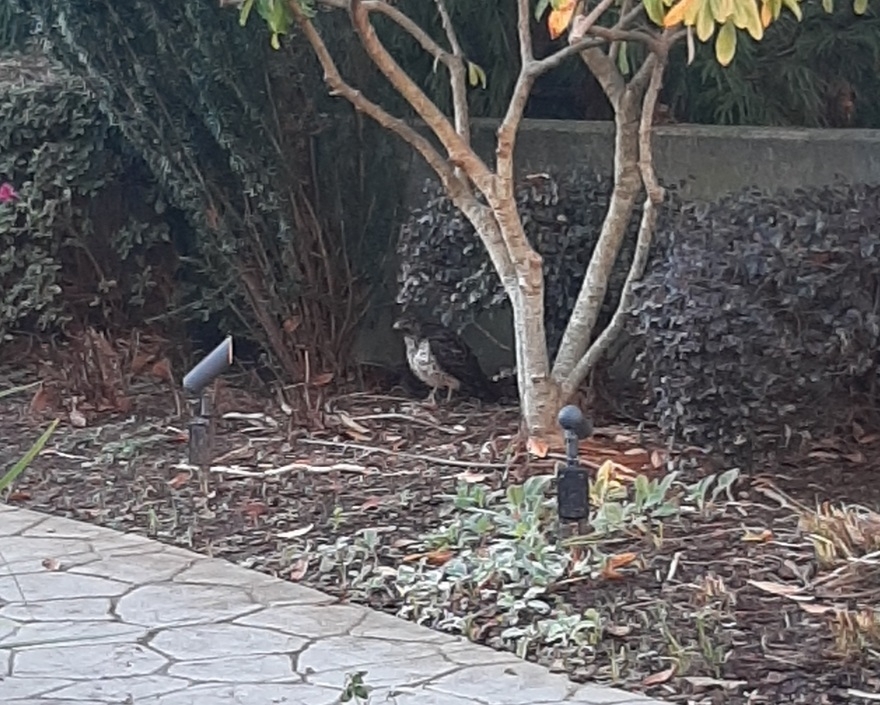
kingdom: Animalia
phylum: Chordata
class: Aves
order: Accipitriformes
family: Accipitridae
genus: Buteo
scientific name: Buteo lineatus
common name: Red-shouldered hawk
